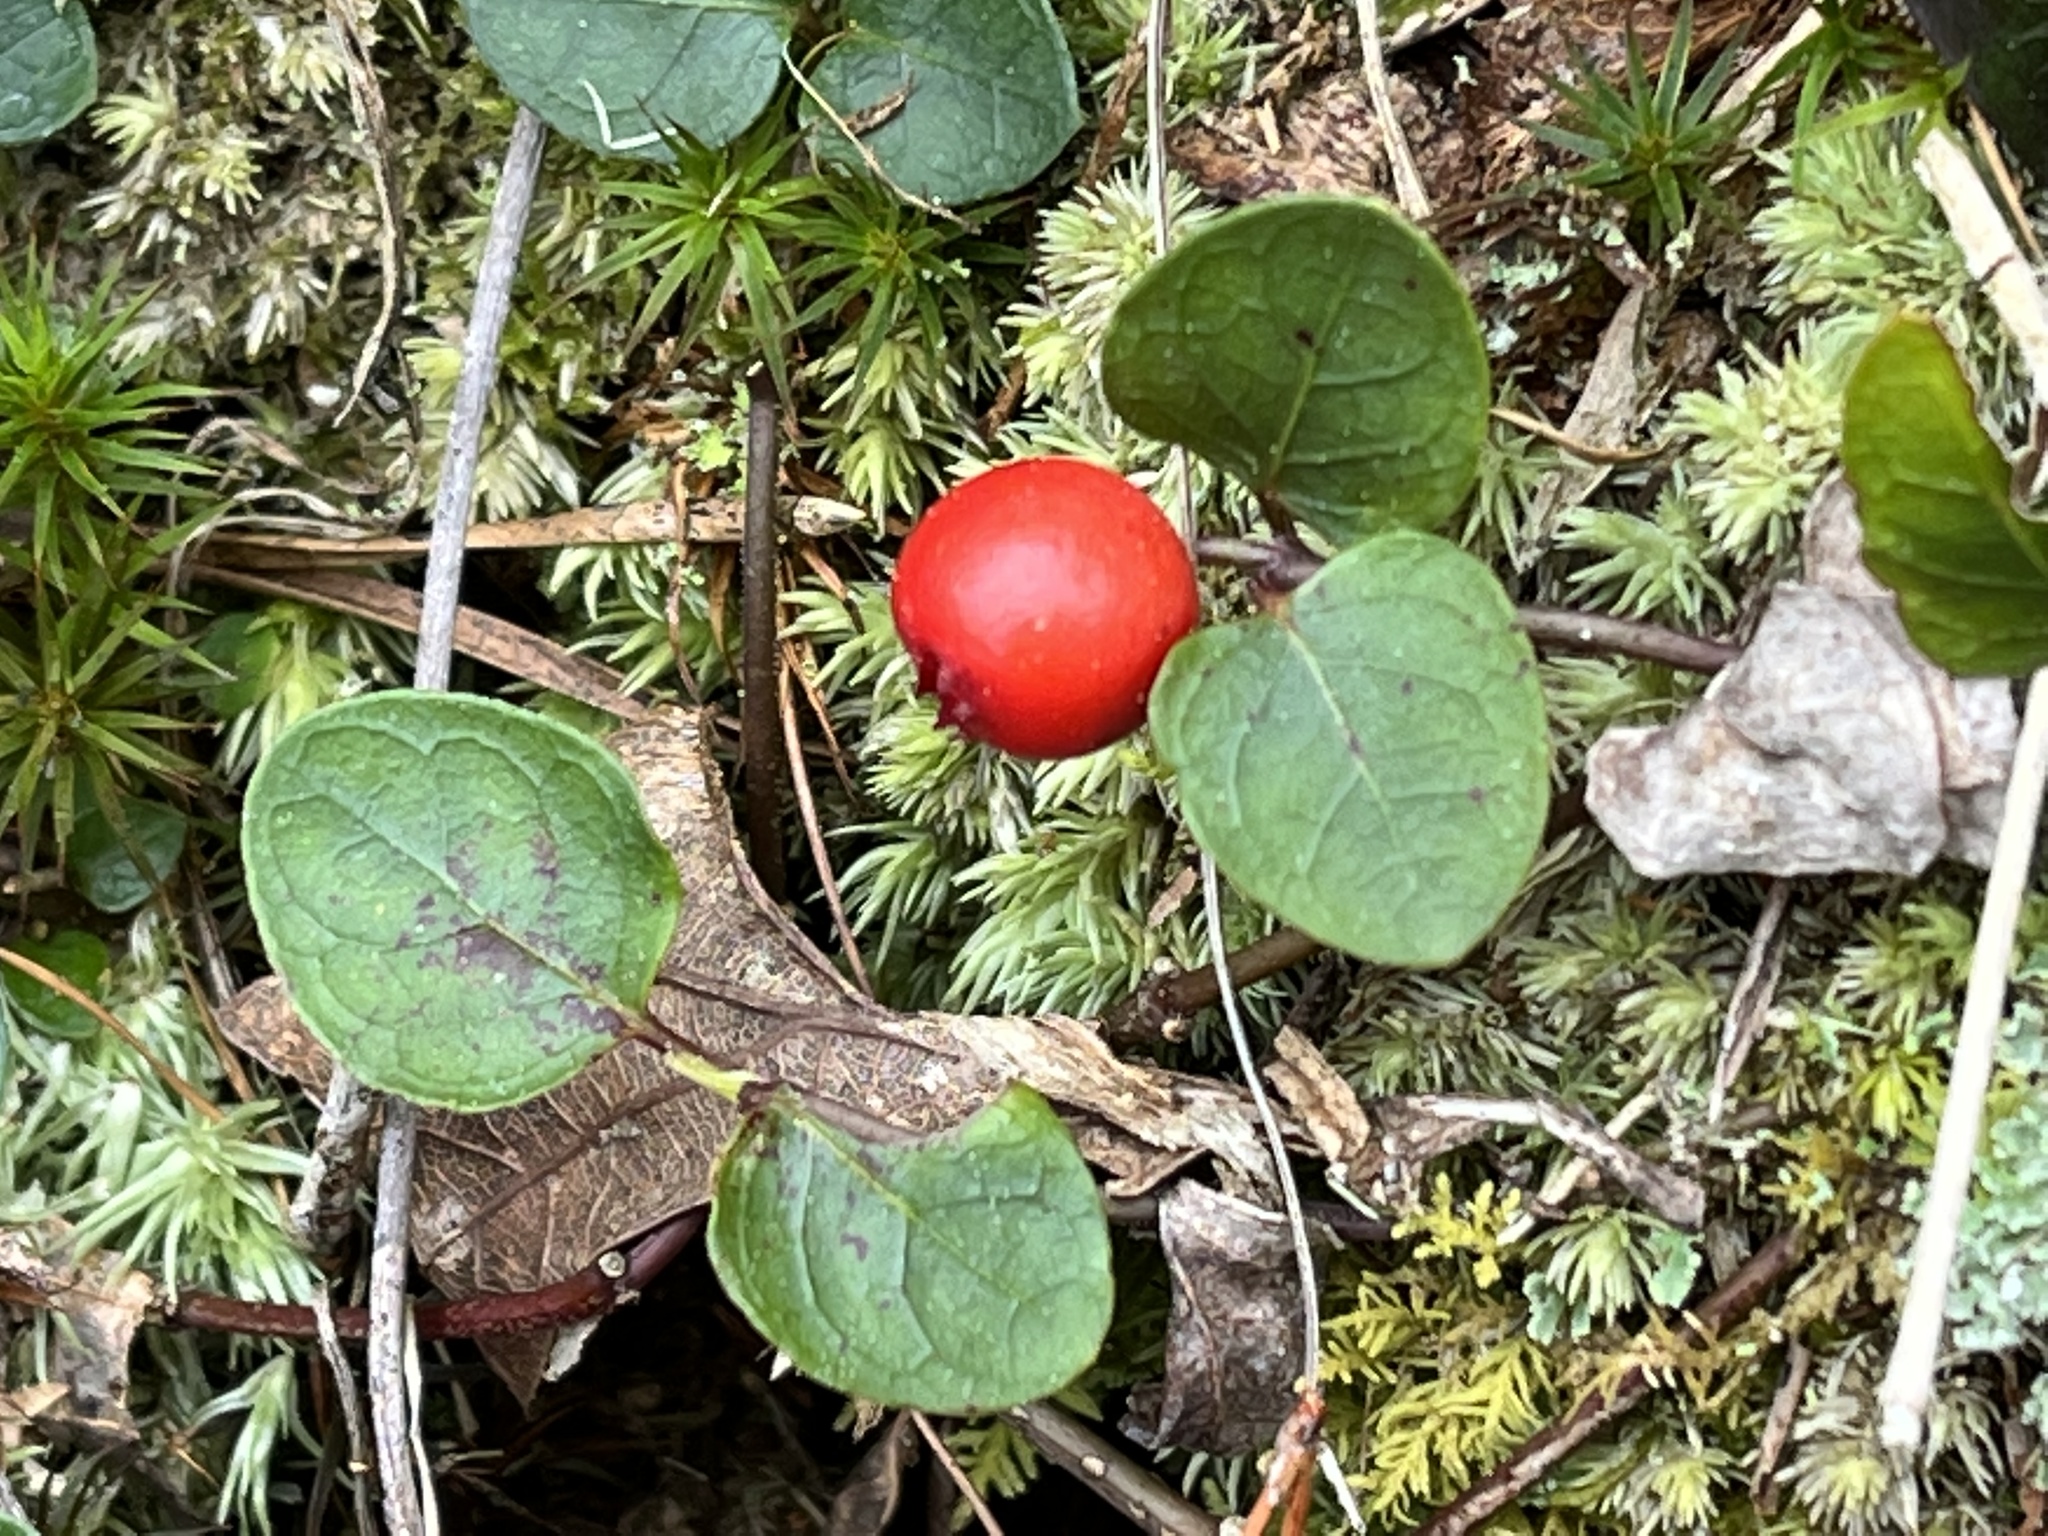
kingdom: Plantae
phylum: Tracheophyta
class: Magnoliopsida
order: Gentianales
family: Rubiaceae
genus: Mitchella
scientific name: Mitchella repens
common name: Partridge-berry
